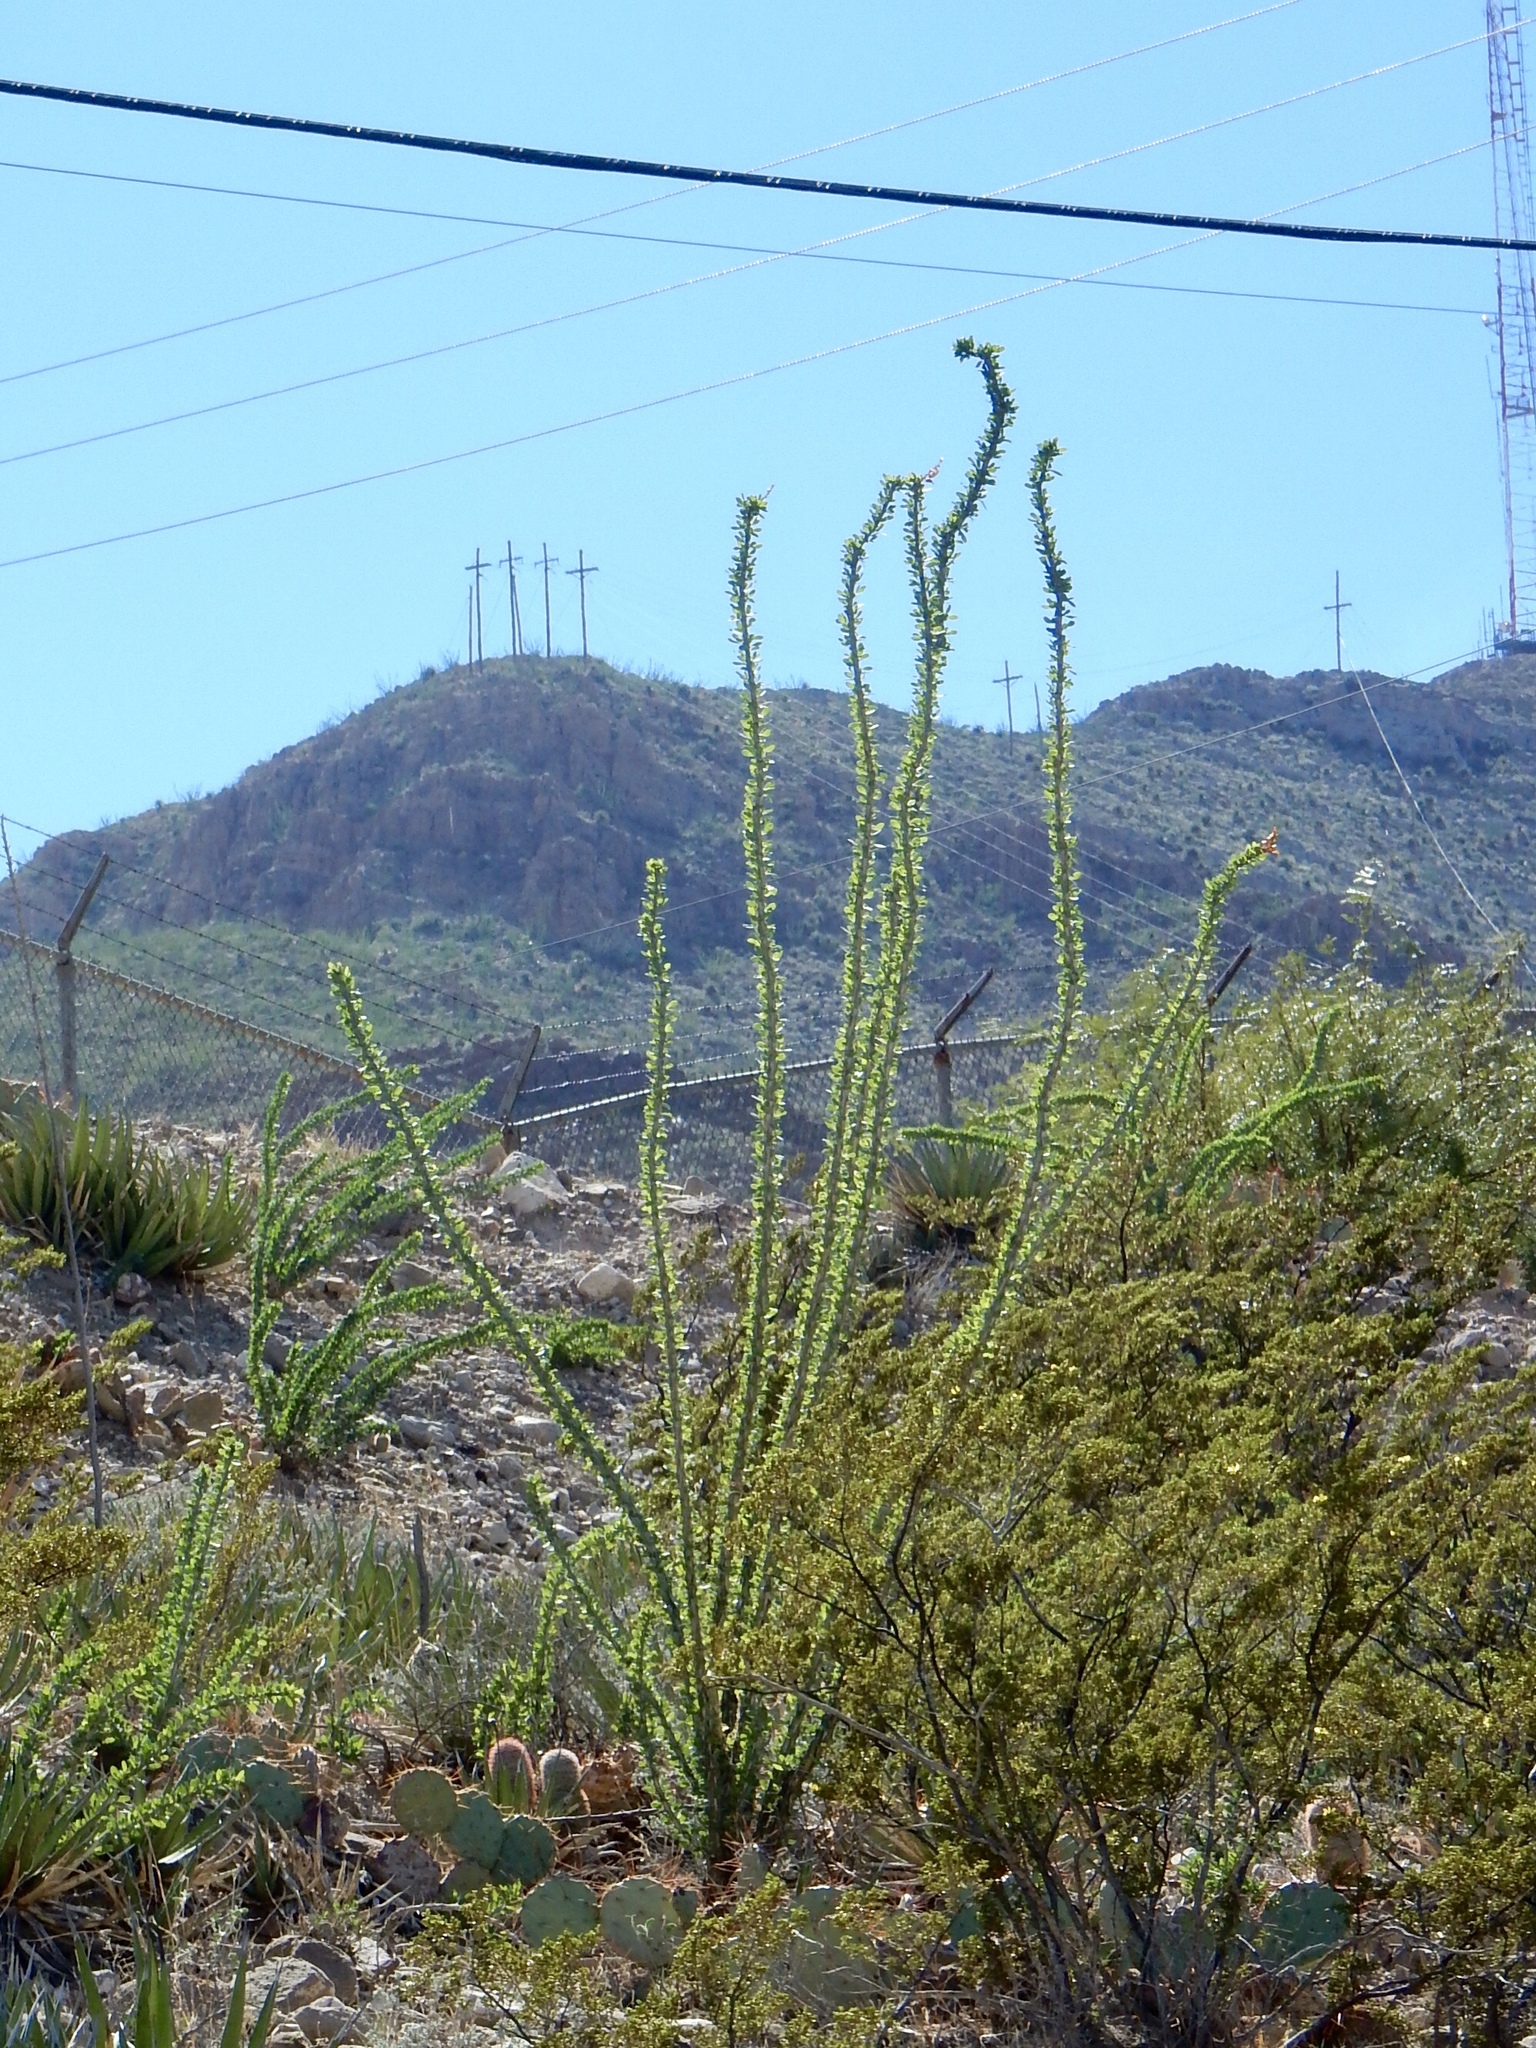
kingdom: Plantae
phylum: Tracheophyta
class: Magnoliopsida
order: Ericales
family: Fouquieriaceae
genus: Fouquieria
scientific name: Fouquieria splendens
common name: Vine-cactus
